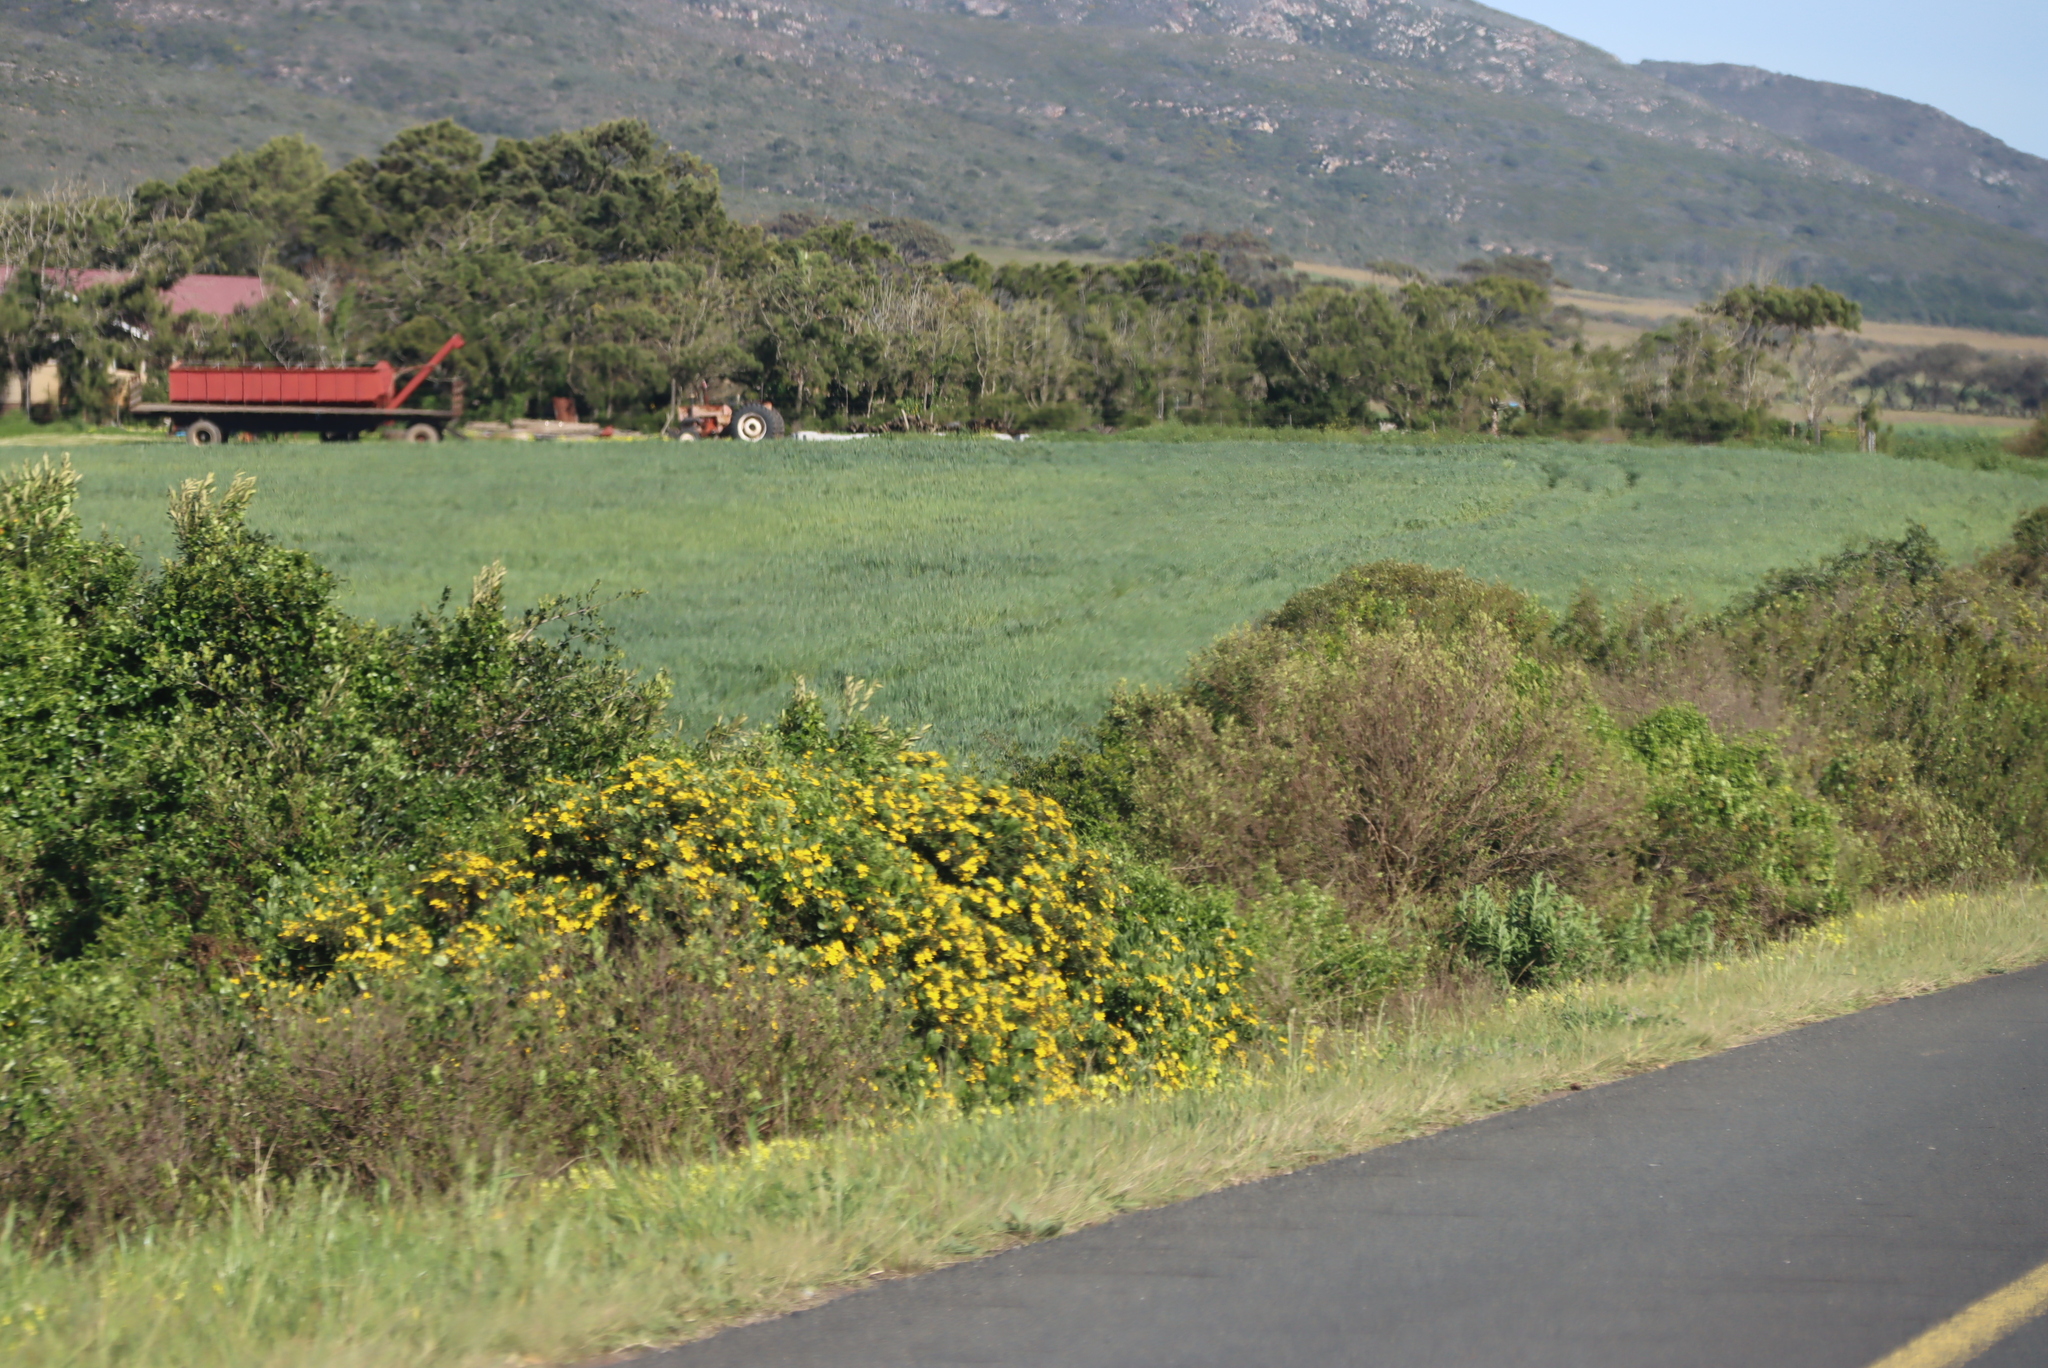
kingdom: Plantae
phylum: Tracheophyta
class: Magnoliopsida
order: Asterales
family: Asteraceae
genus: Osteospermum
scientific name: Osteospermum moniliferum
